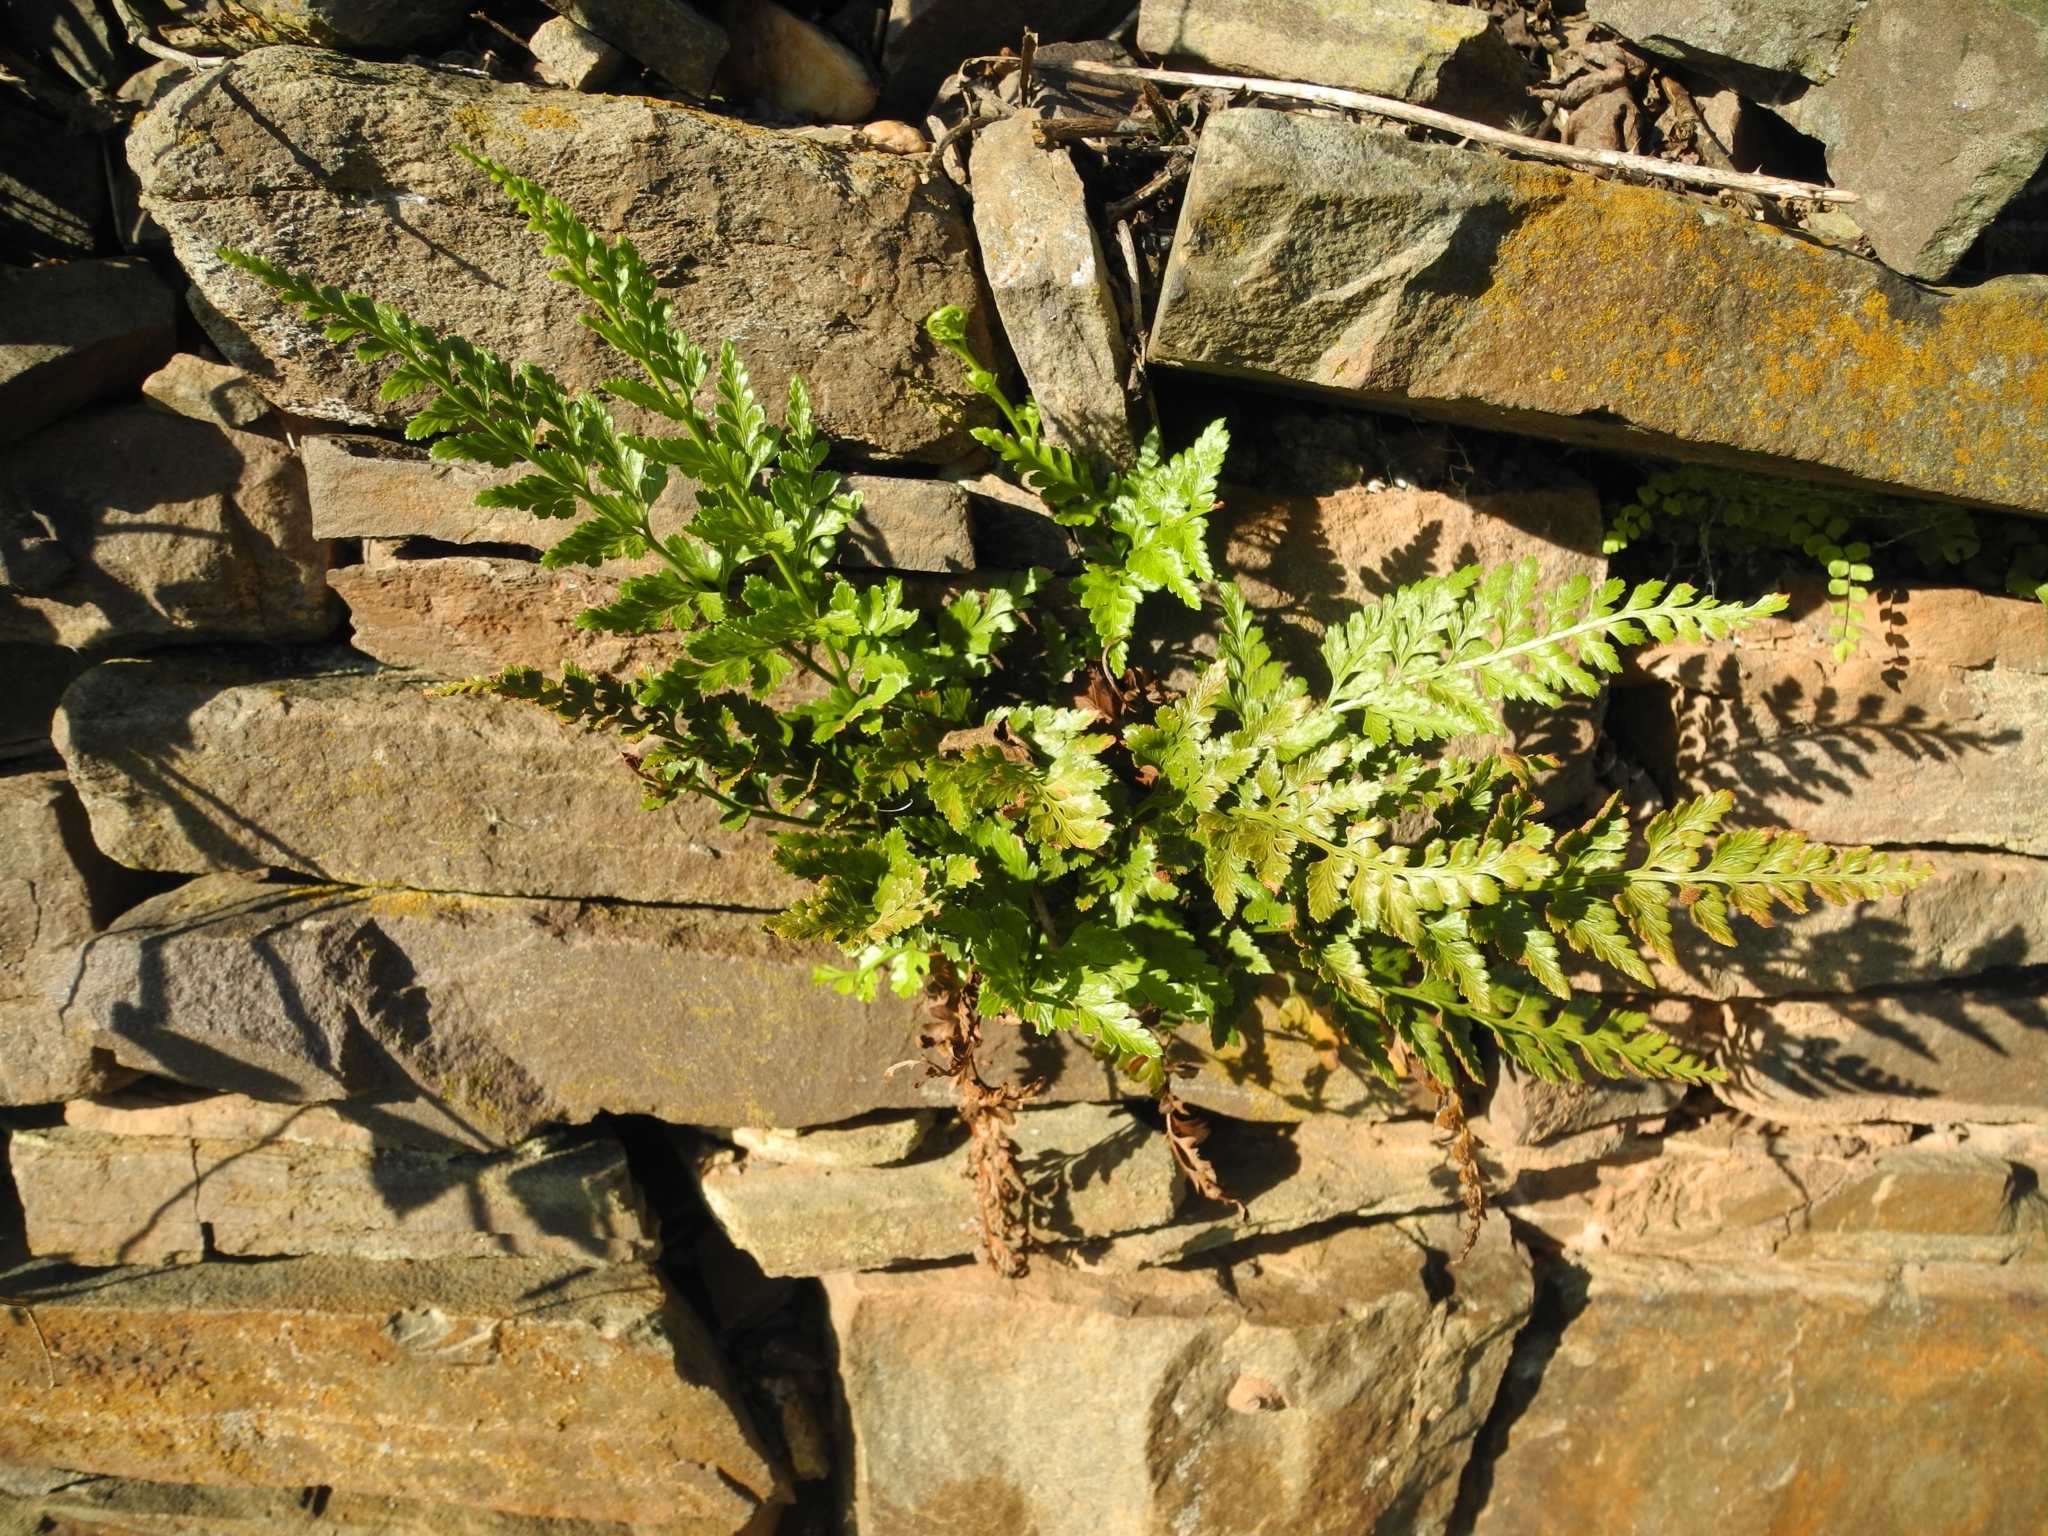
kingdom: Plantae
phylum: Tracheophyta
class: Polypodiopsida
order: Polypodiales
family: Aspleniaceae
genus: Asplenium
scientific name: Asplenium adiantum-nigrum
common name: Black spleenwort
